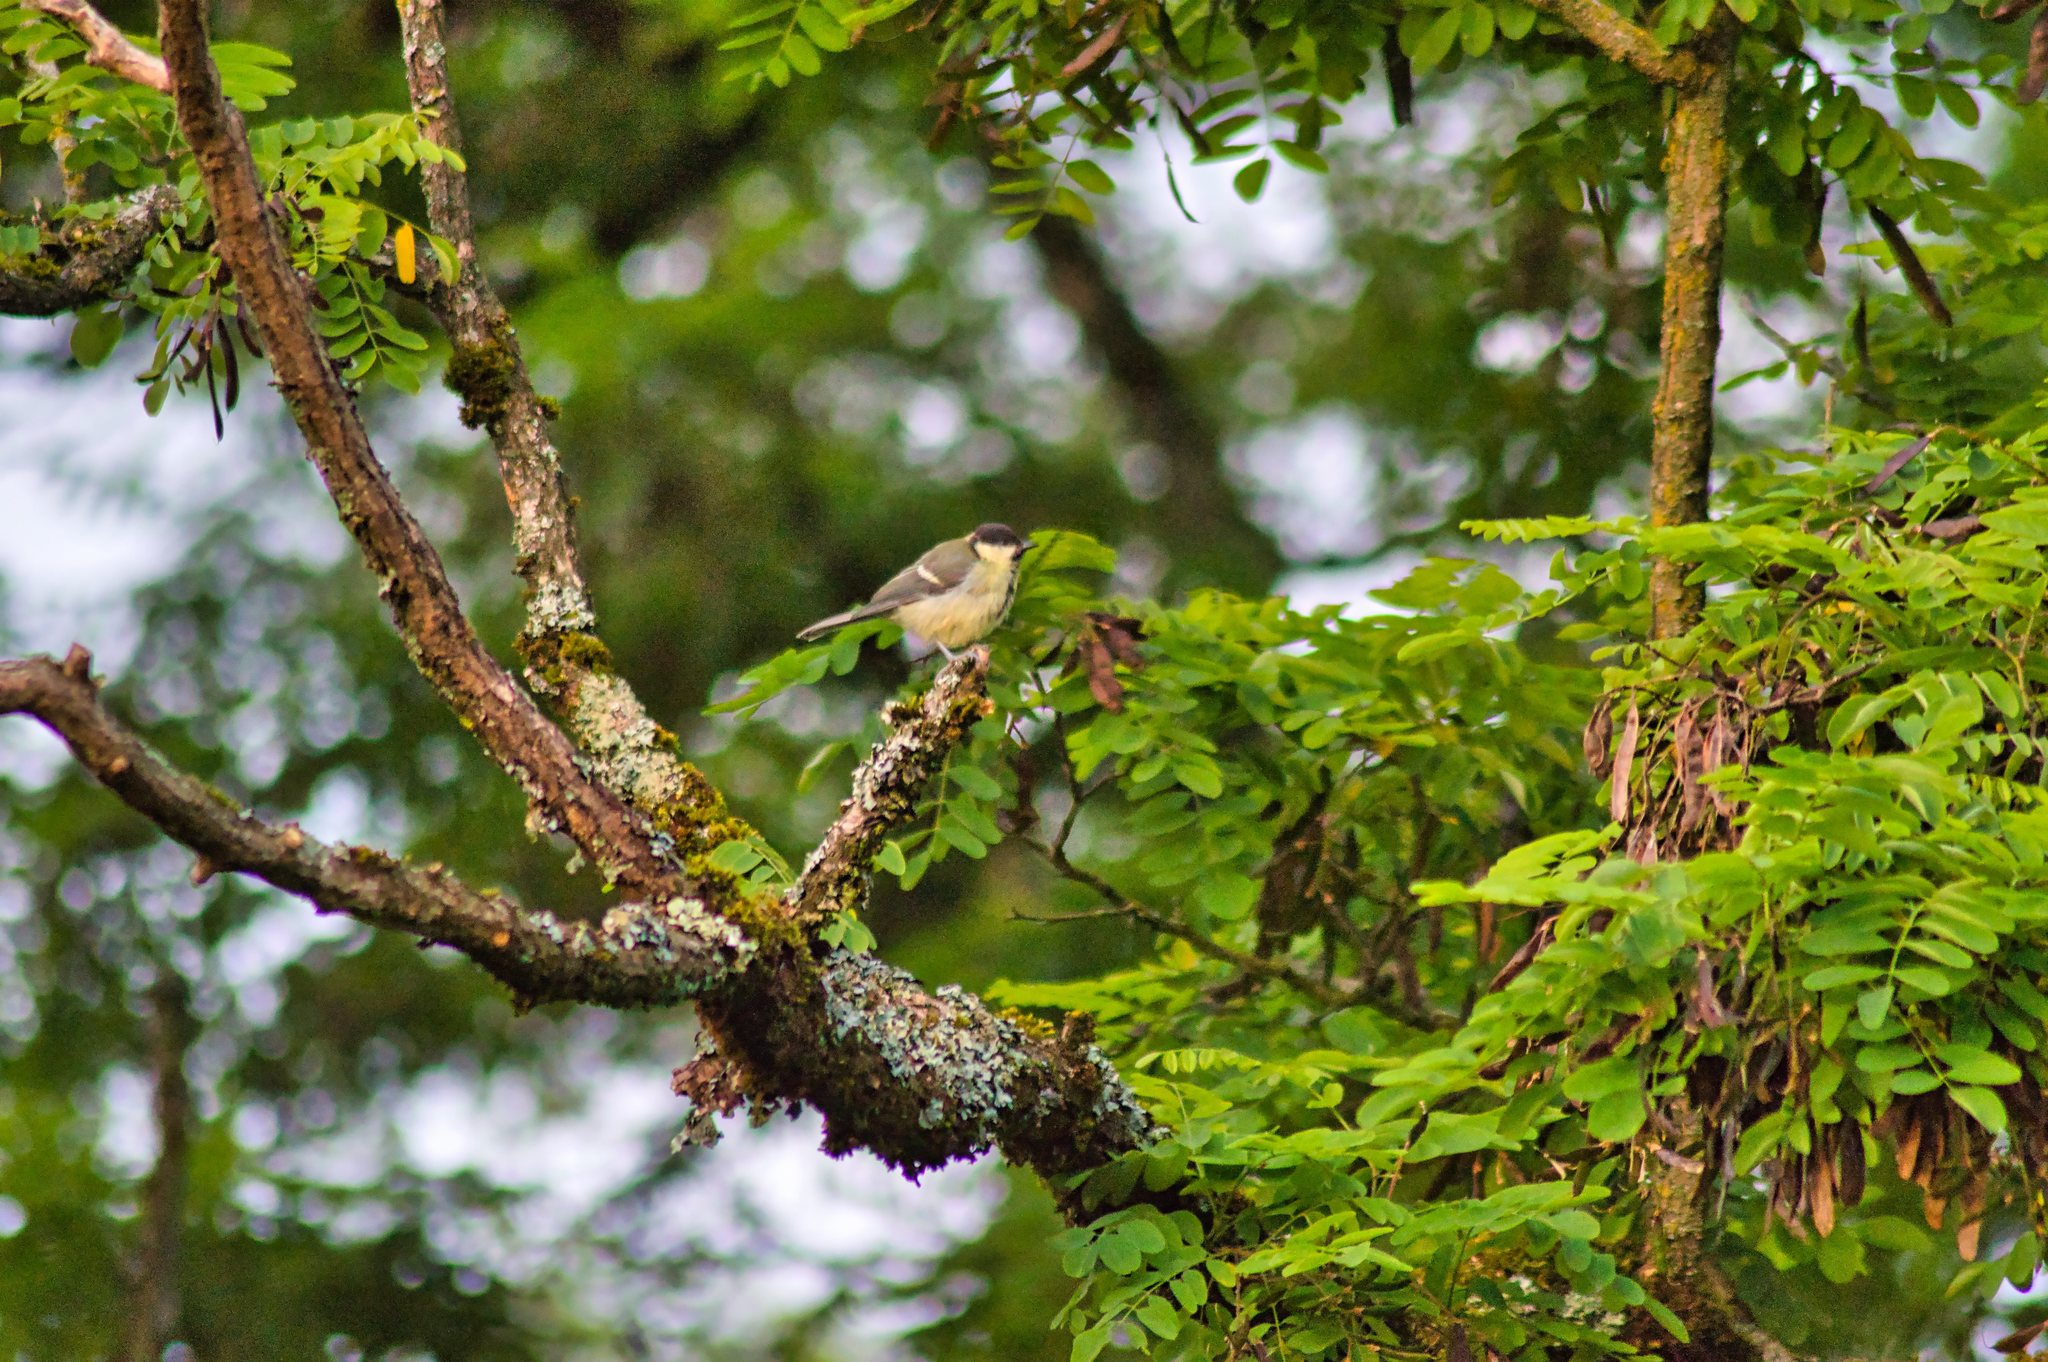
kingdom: Animalia
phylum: Chordata
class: Aves
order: Passeriformes
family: Paridae
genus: Parus
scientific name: Parus major
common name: Great tit
